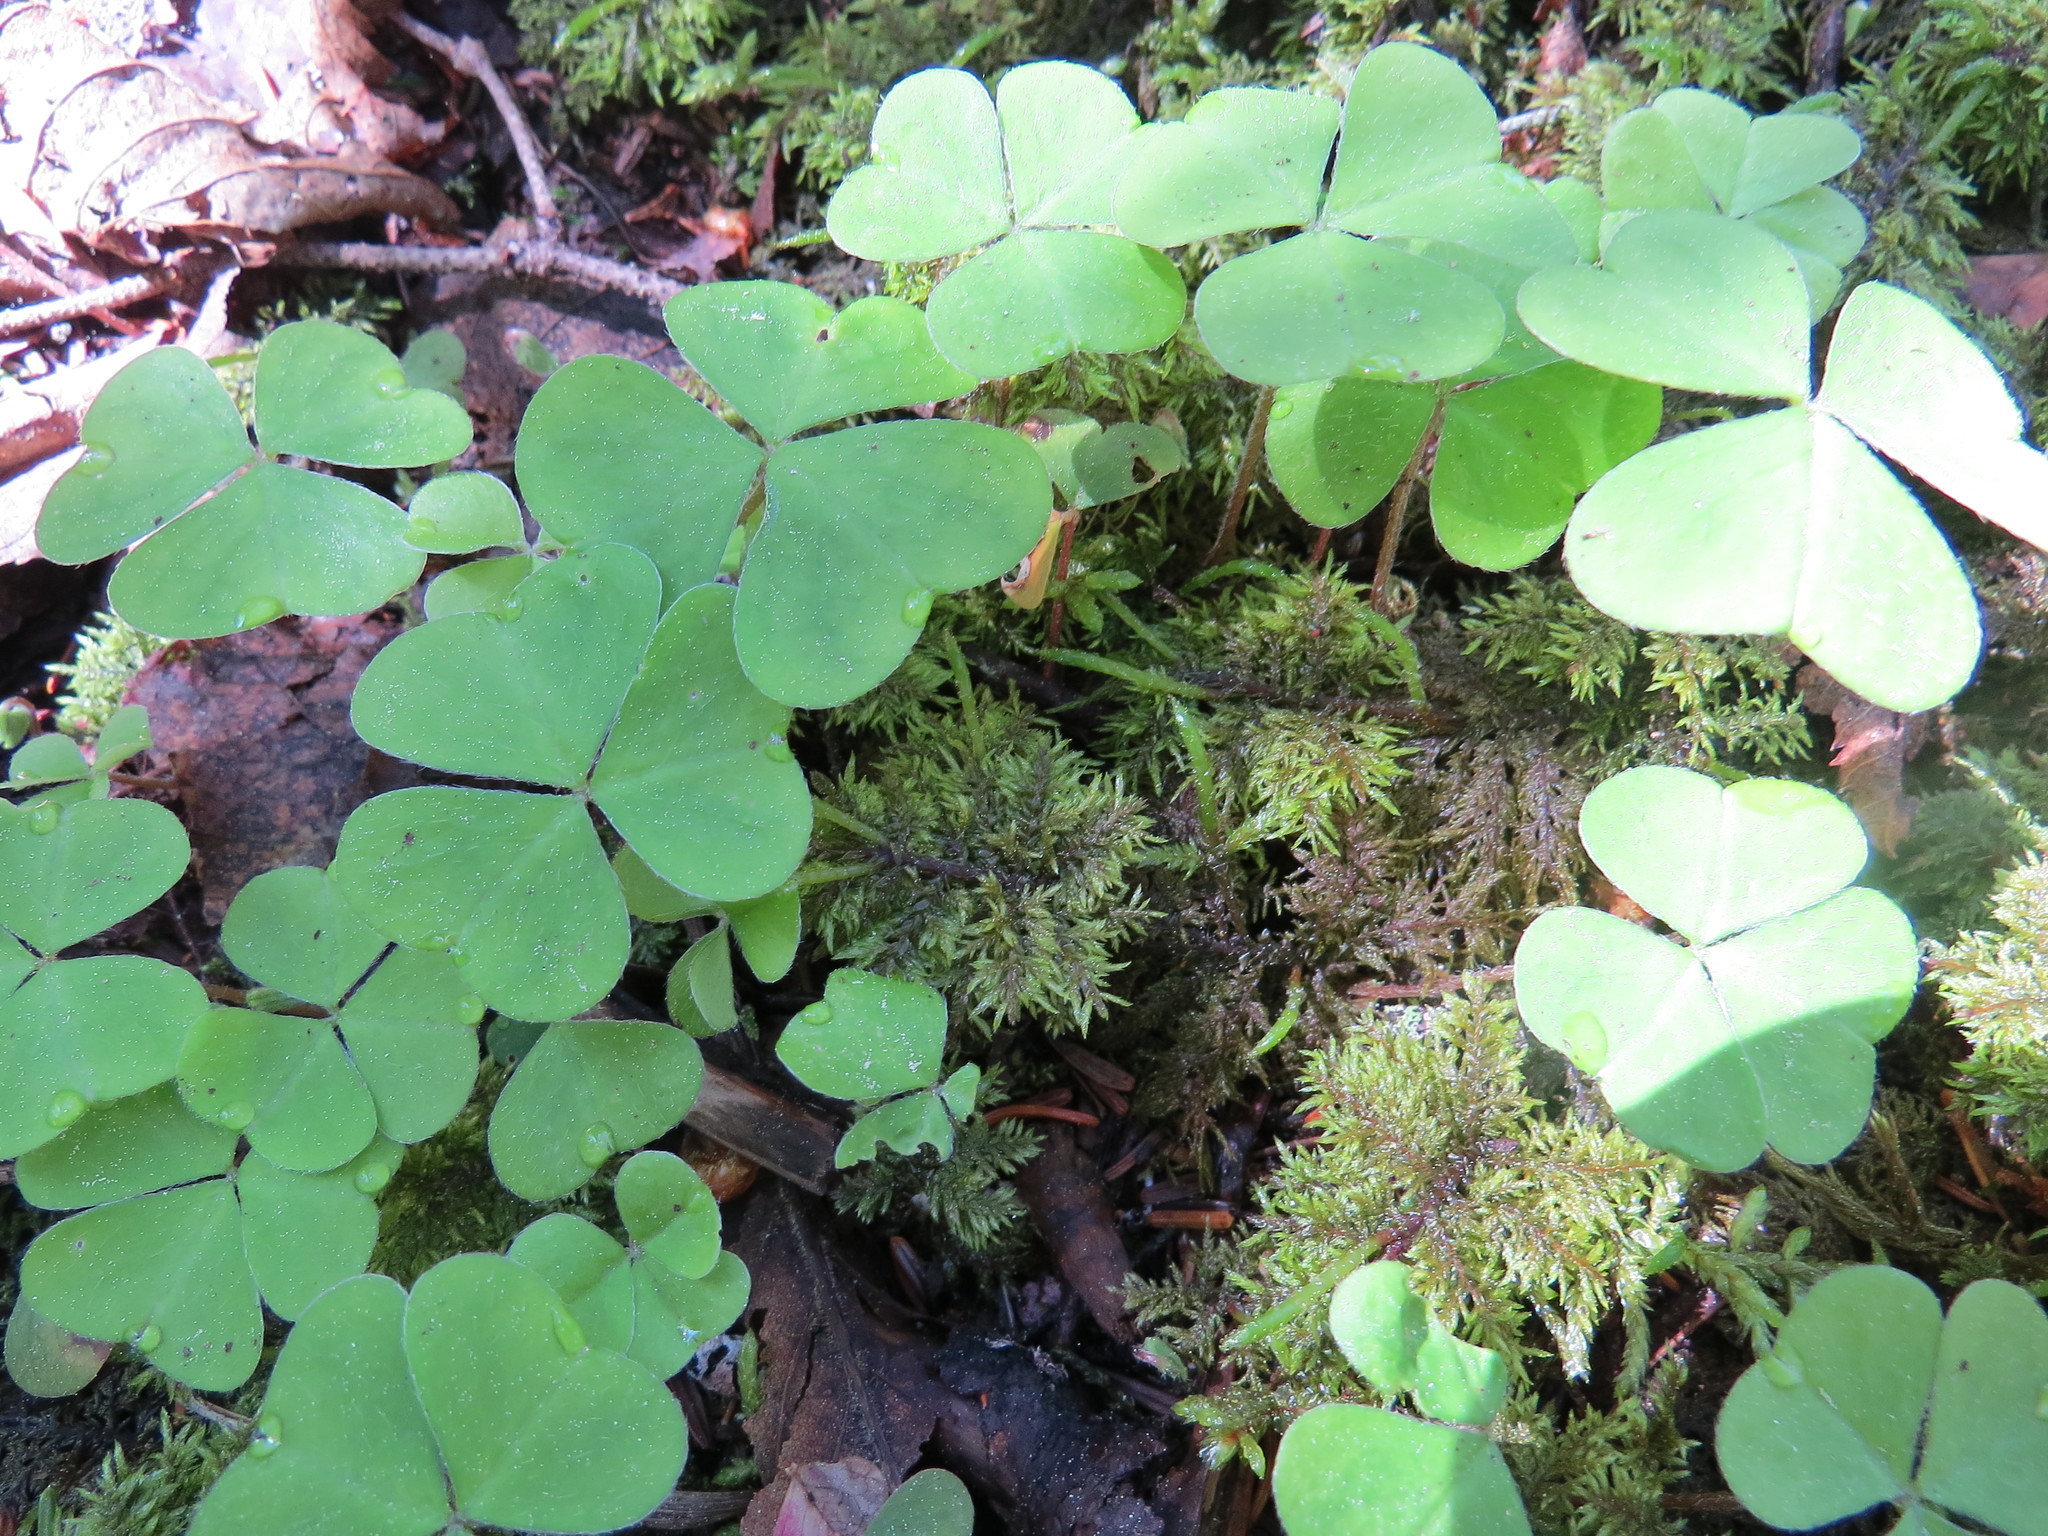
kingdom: Plantae
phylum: Tracheophyta
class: Magnoliopsida
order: Oxalidales
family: Oxalidaceae
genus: Oxalis
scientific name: Oxalis montana
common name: American wood-sorrel
